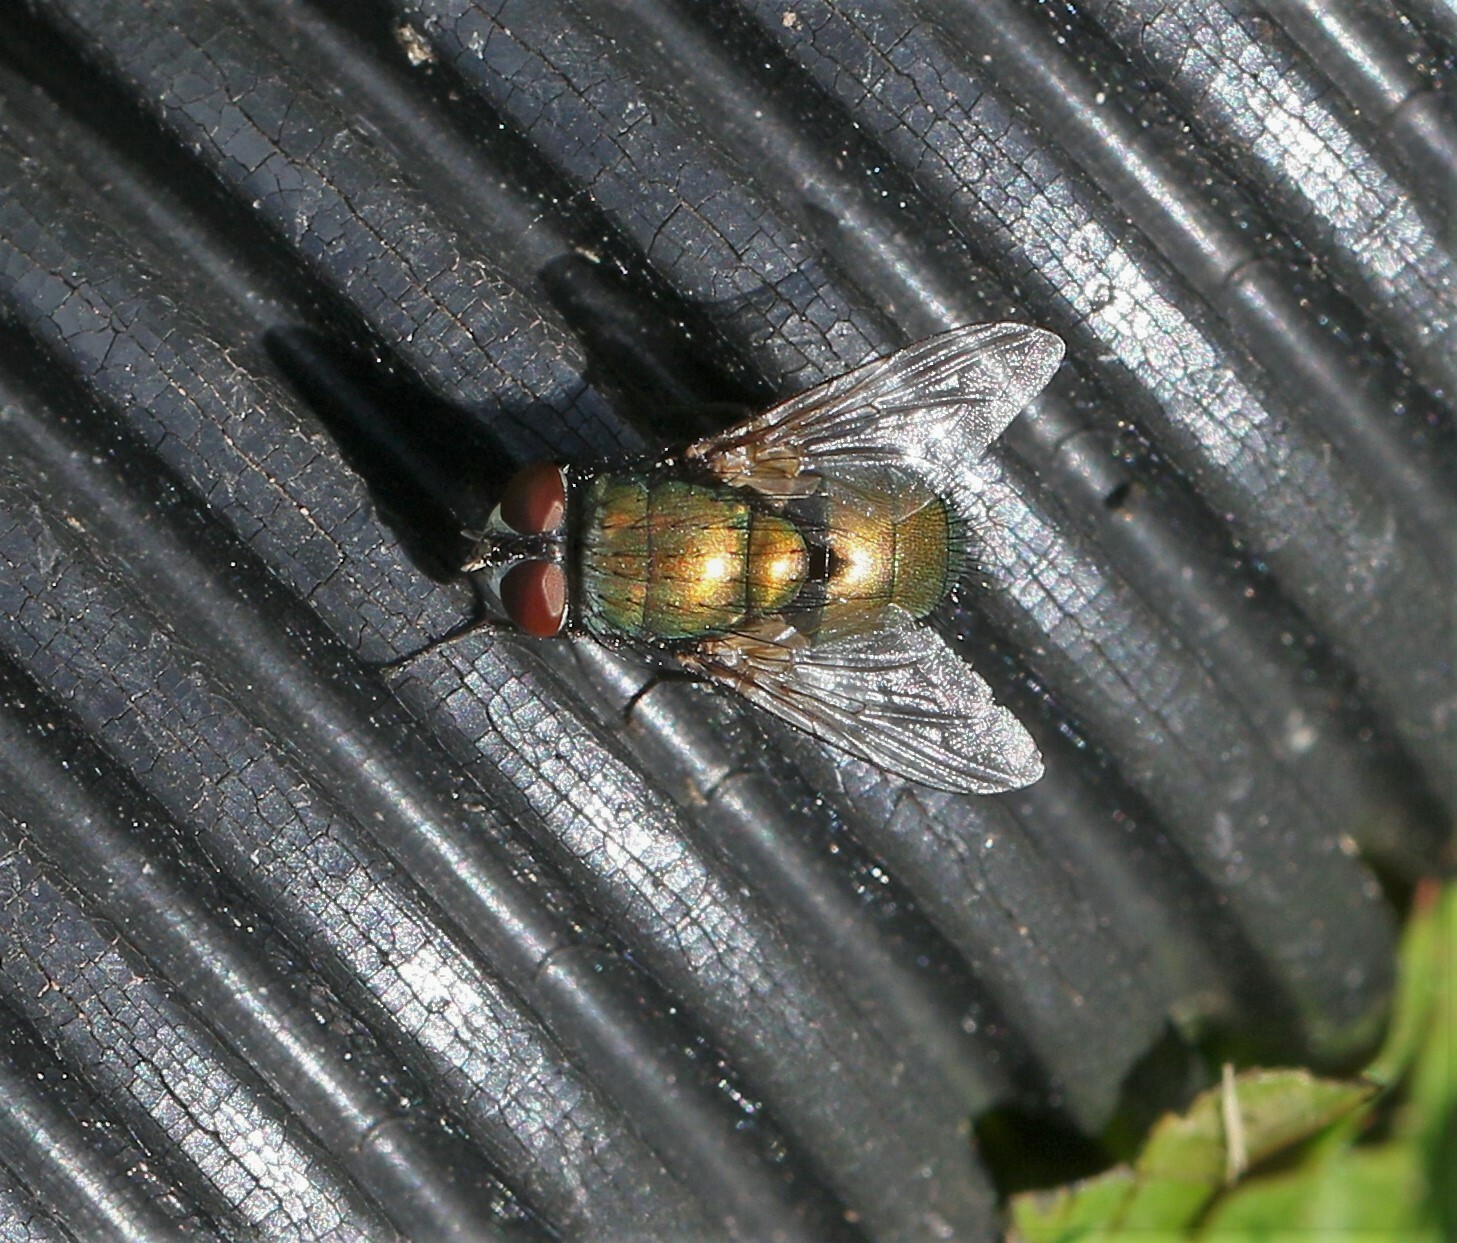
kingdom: Animalia
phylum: Arthropoda
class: Insecta
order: Diptera
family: Calliphoridae
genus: Lucilia
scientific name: Lucilia sericata
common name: Blow fly
